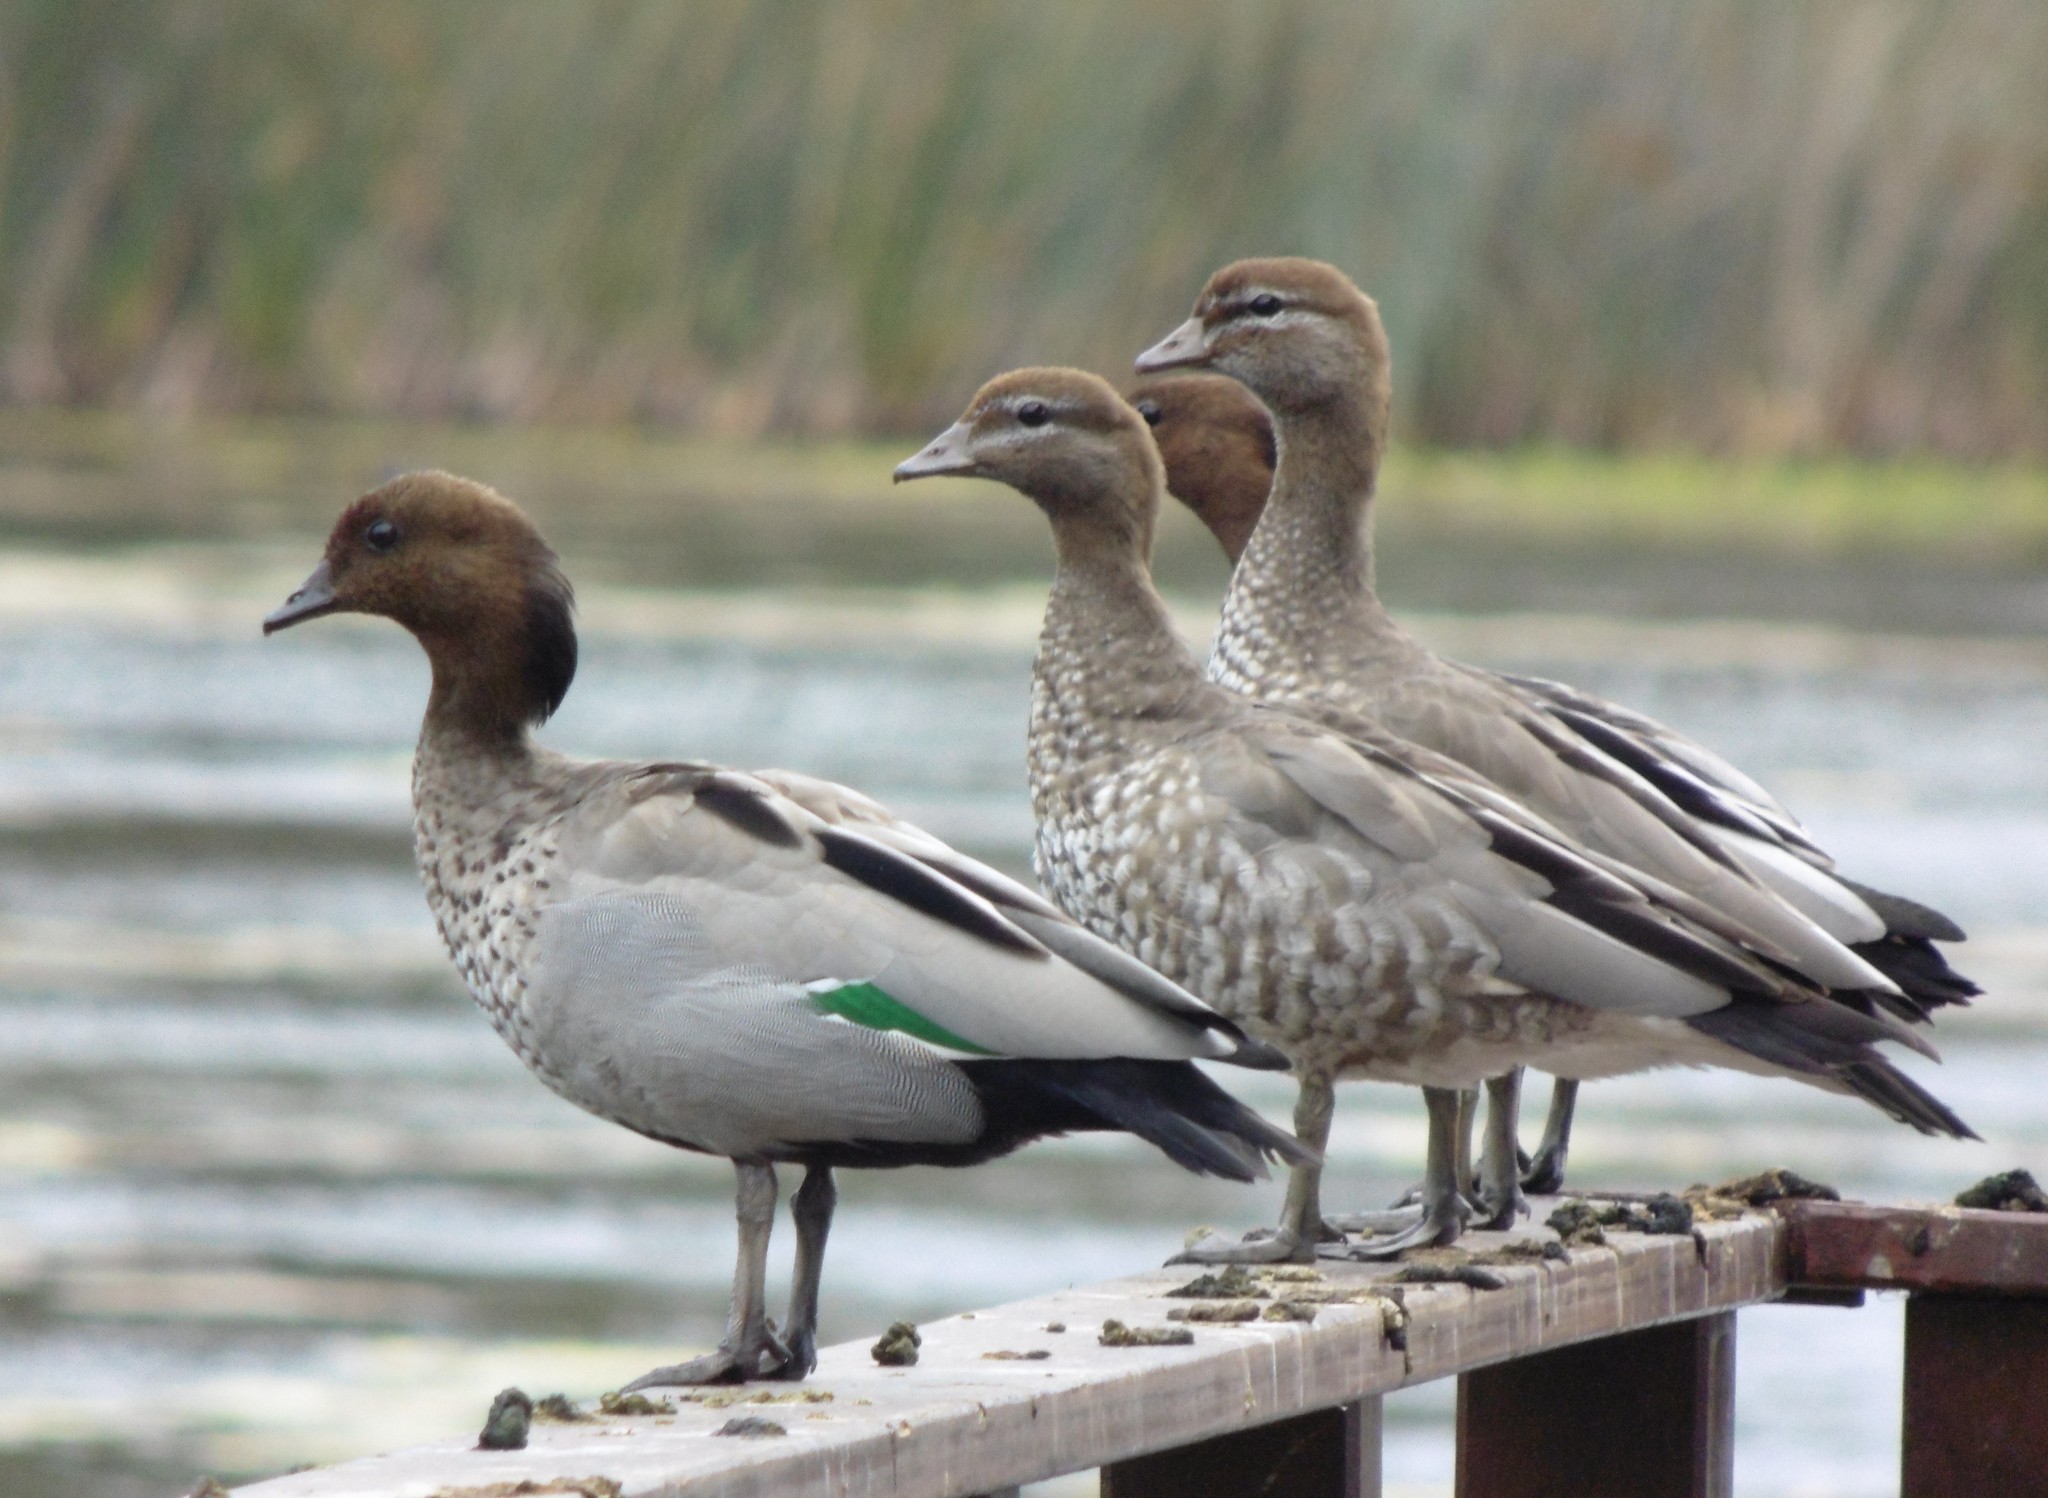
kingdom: Animalia
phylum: Chordata
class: Aves
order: Anseriformes
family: Anatidae
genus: Chenonetta
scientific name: Chenonetta jubata
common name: Maned duck
